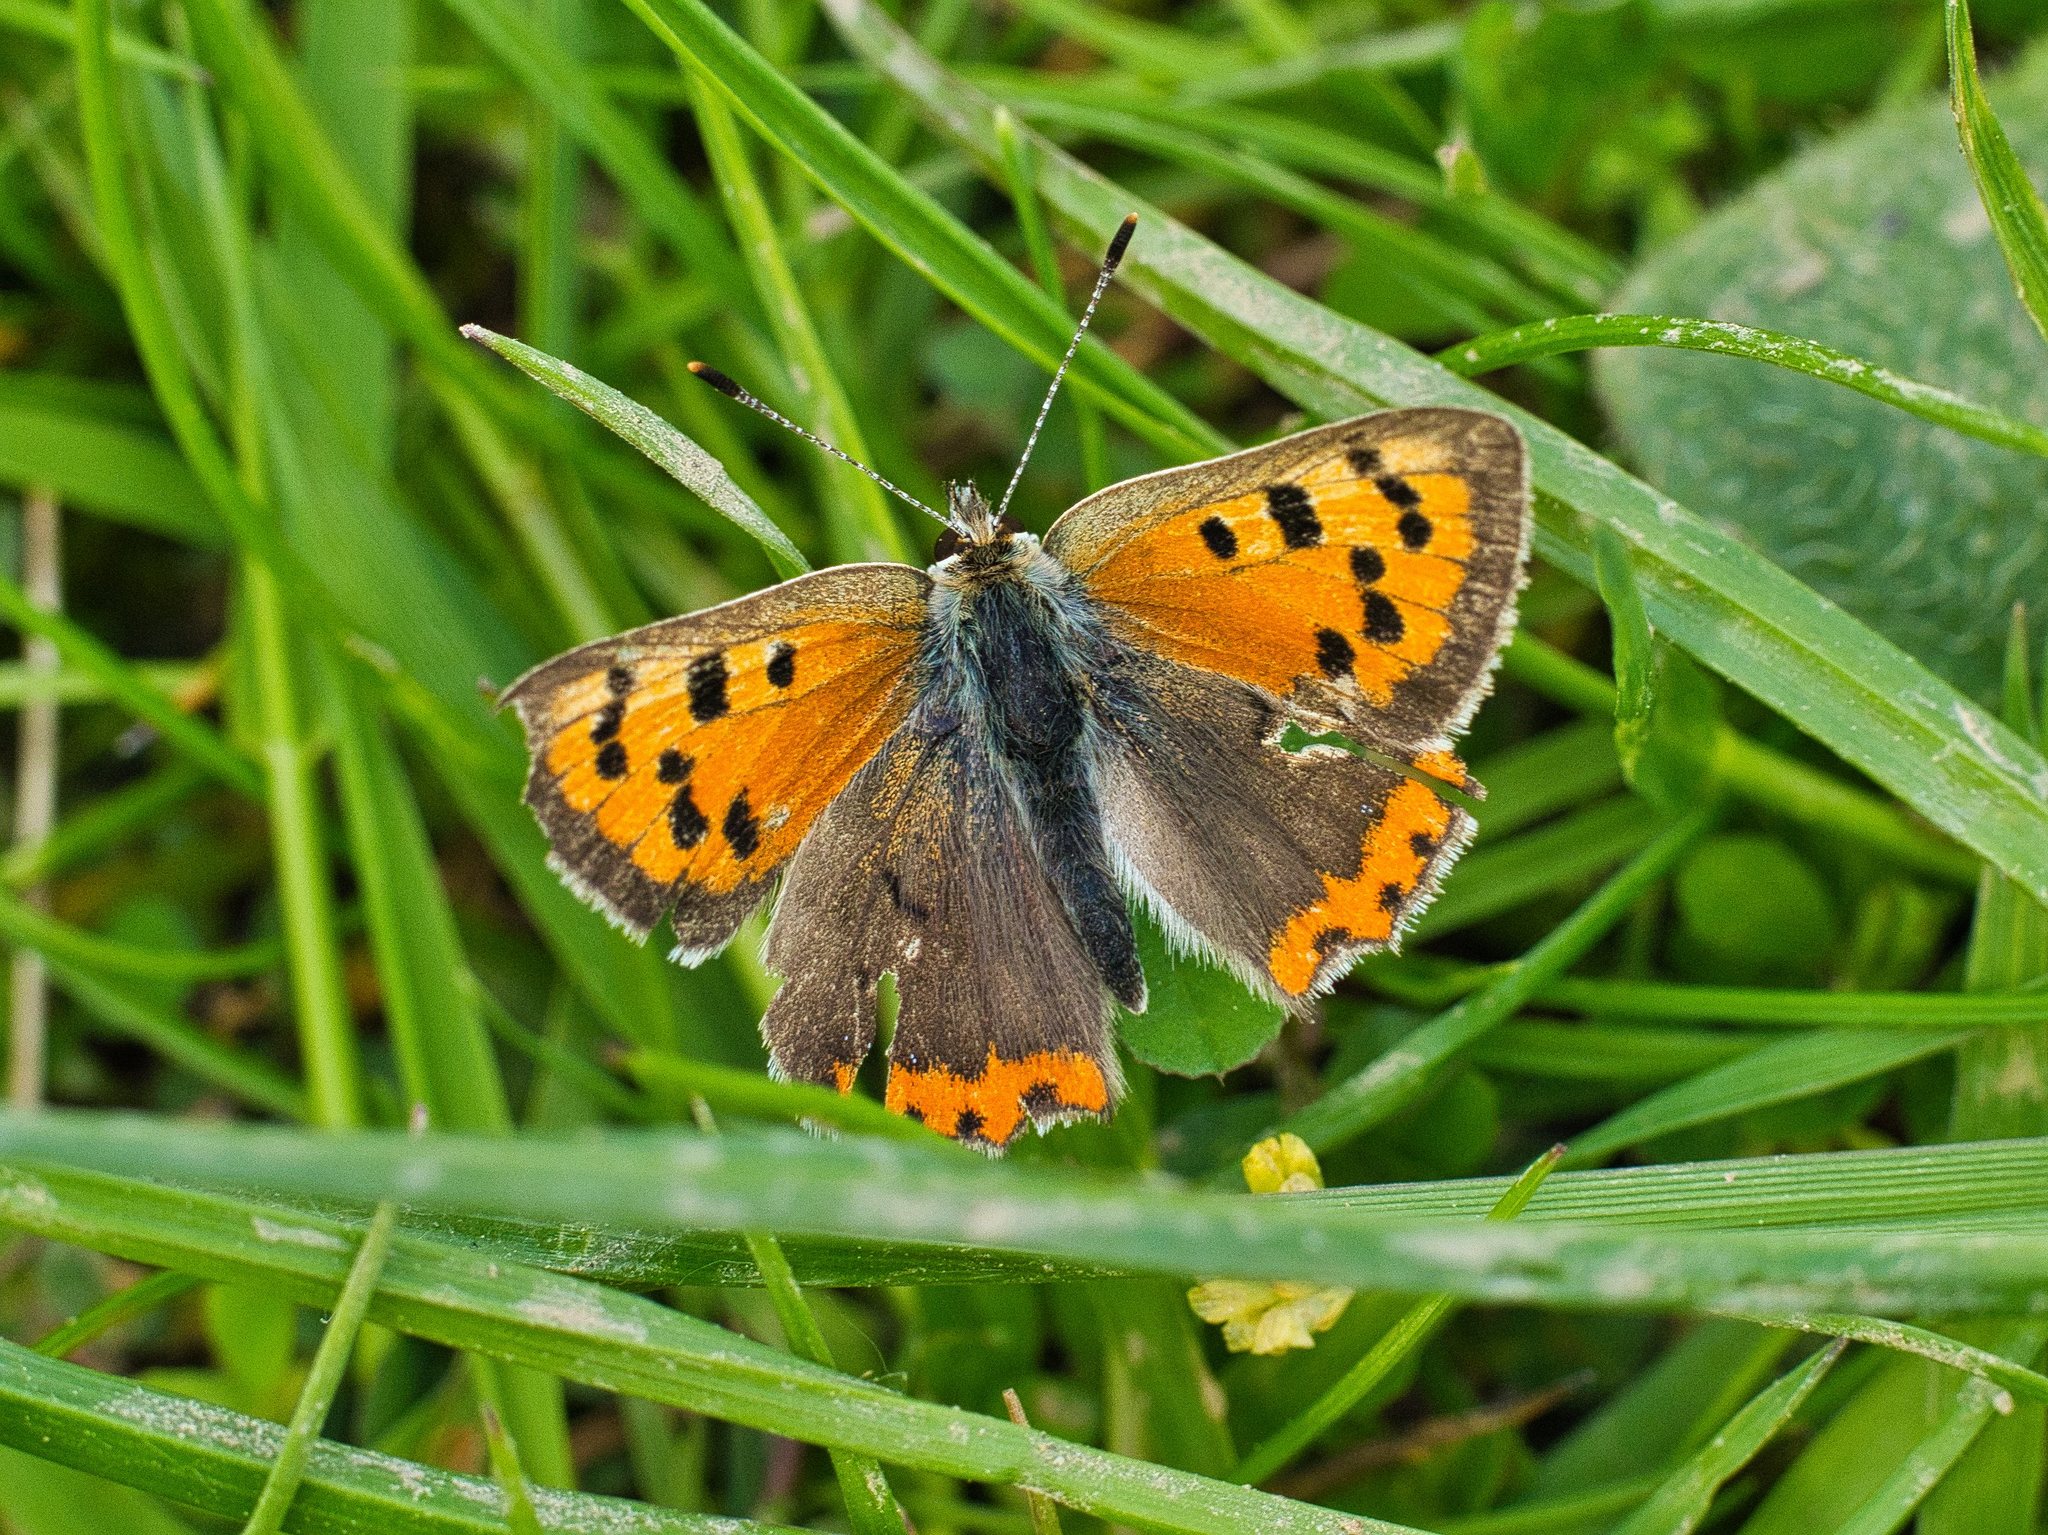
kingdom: Animalia
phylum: Arthropoda
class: Insecta
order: Lepidoptera
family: Lycaenidae
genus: Lycaena
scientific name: Lycaena phlaeas
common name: Small copper
